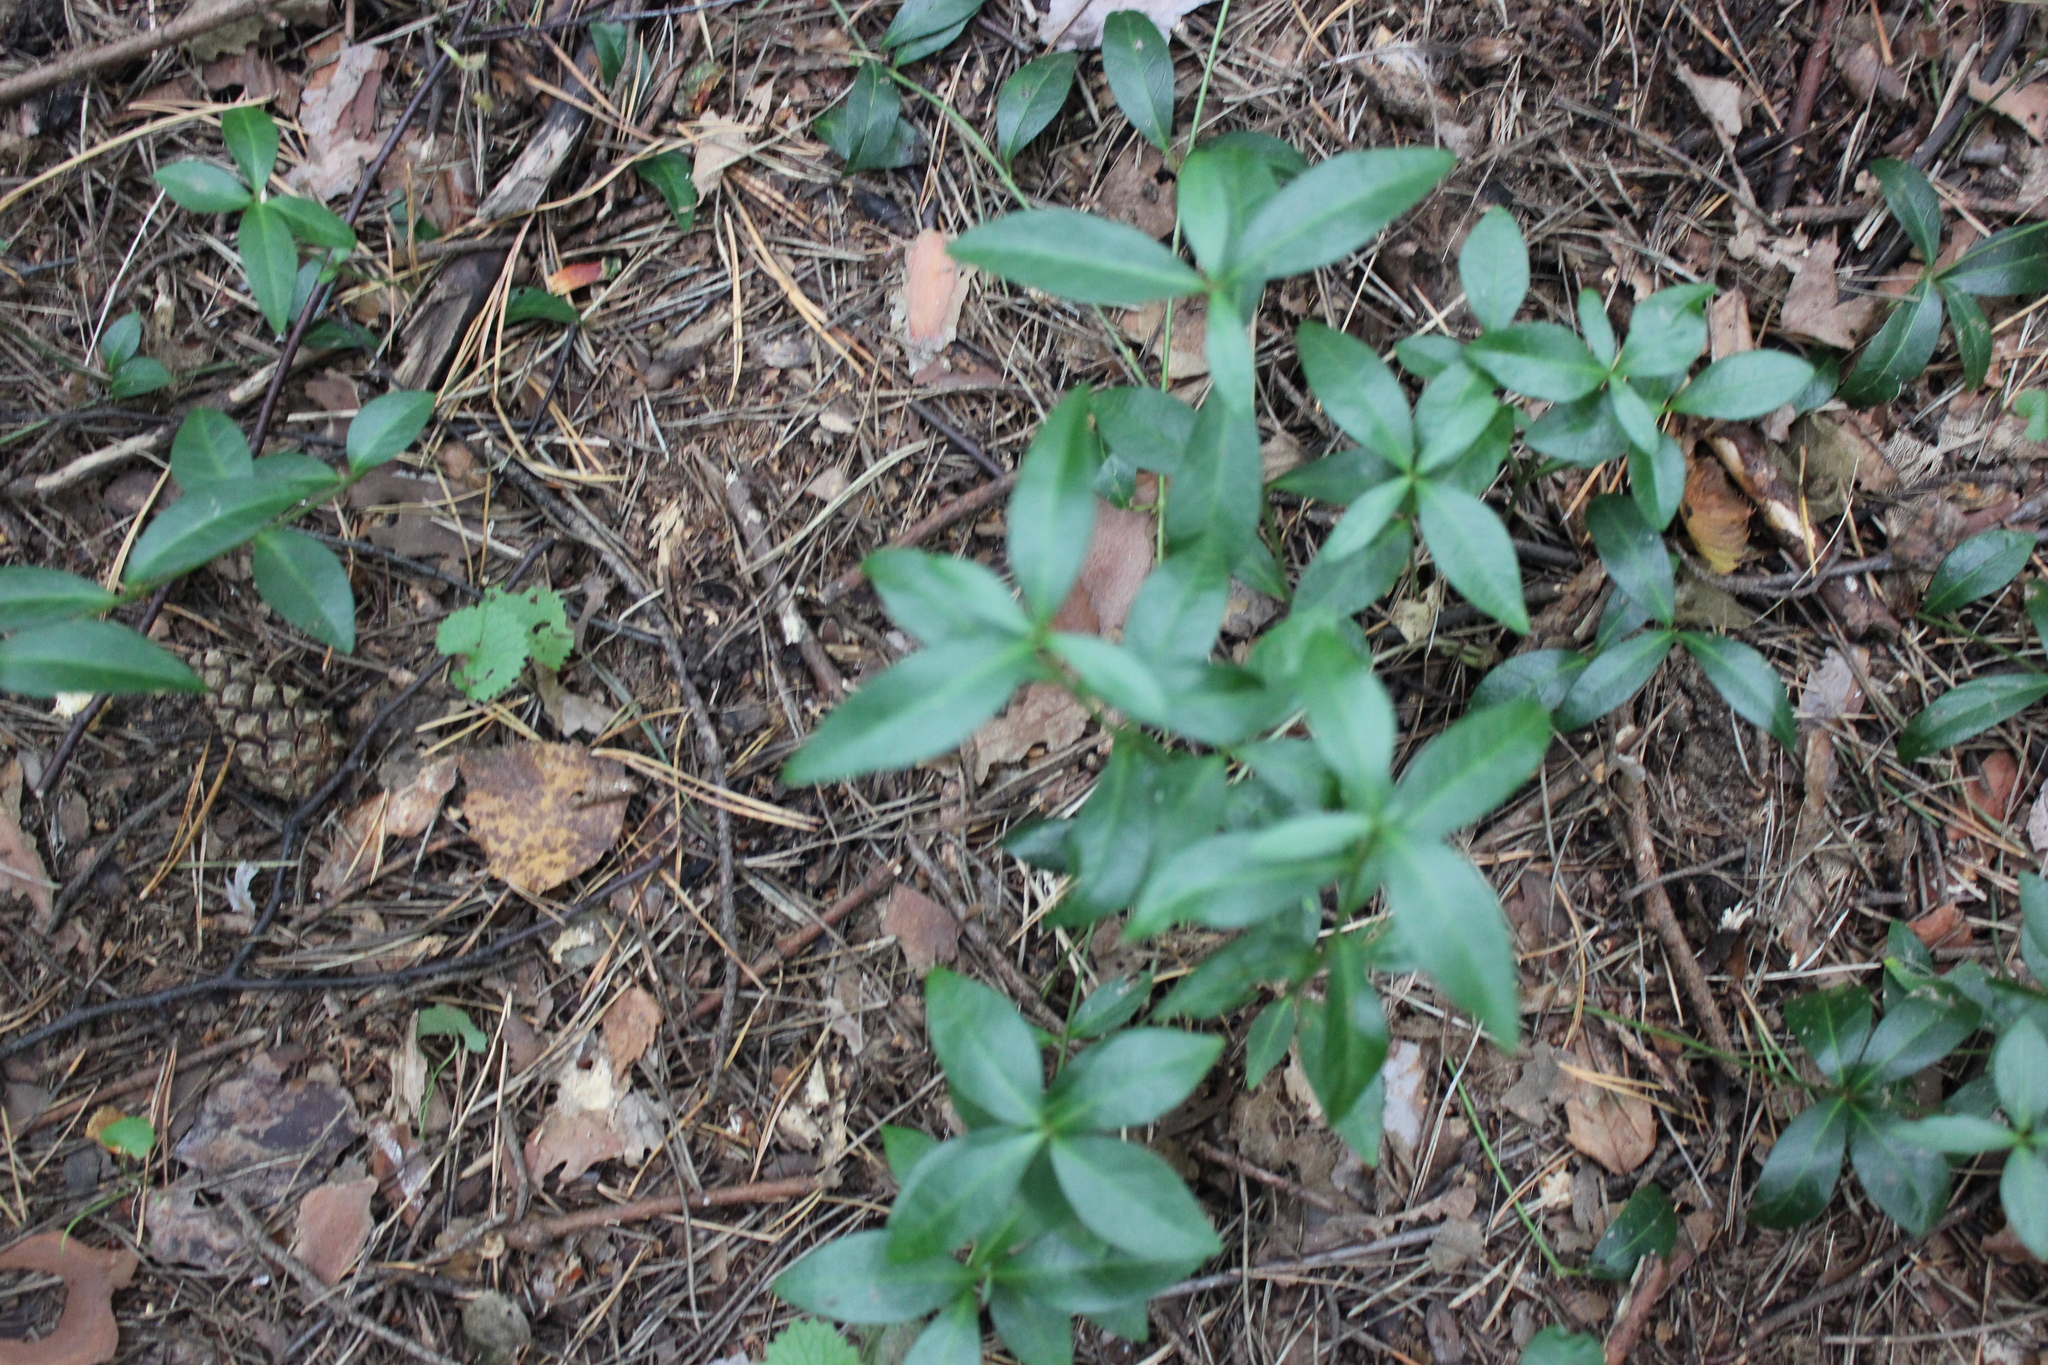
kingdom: Plantae
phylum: Tracheophyta
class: Magnoliopsida
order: Gentianales
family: Apocynaceae
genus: Vinca
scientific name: Vinca minor
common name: Lesser periwinkle
